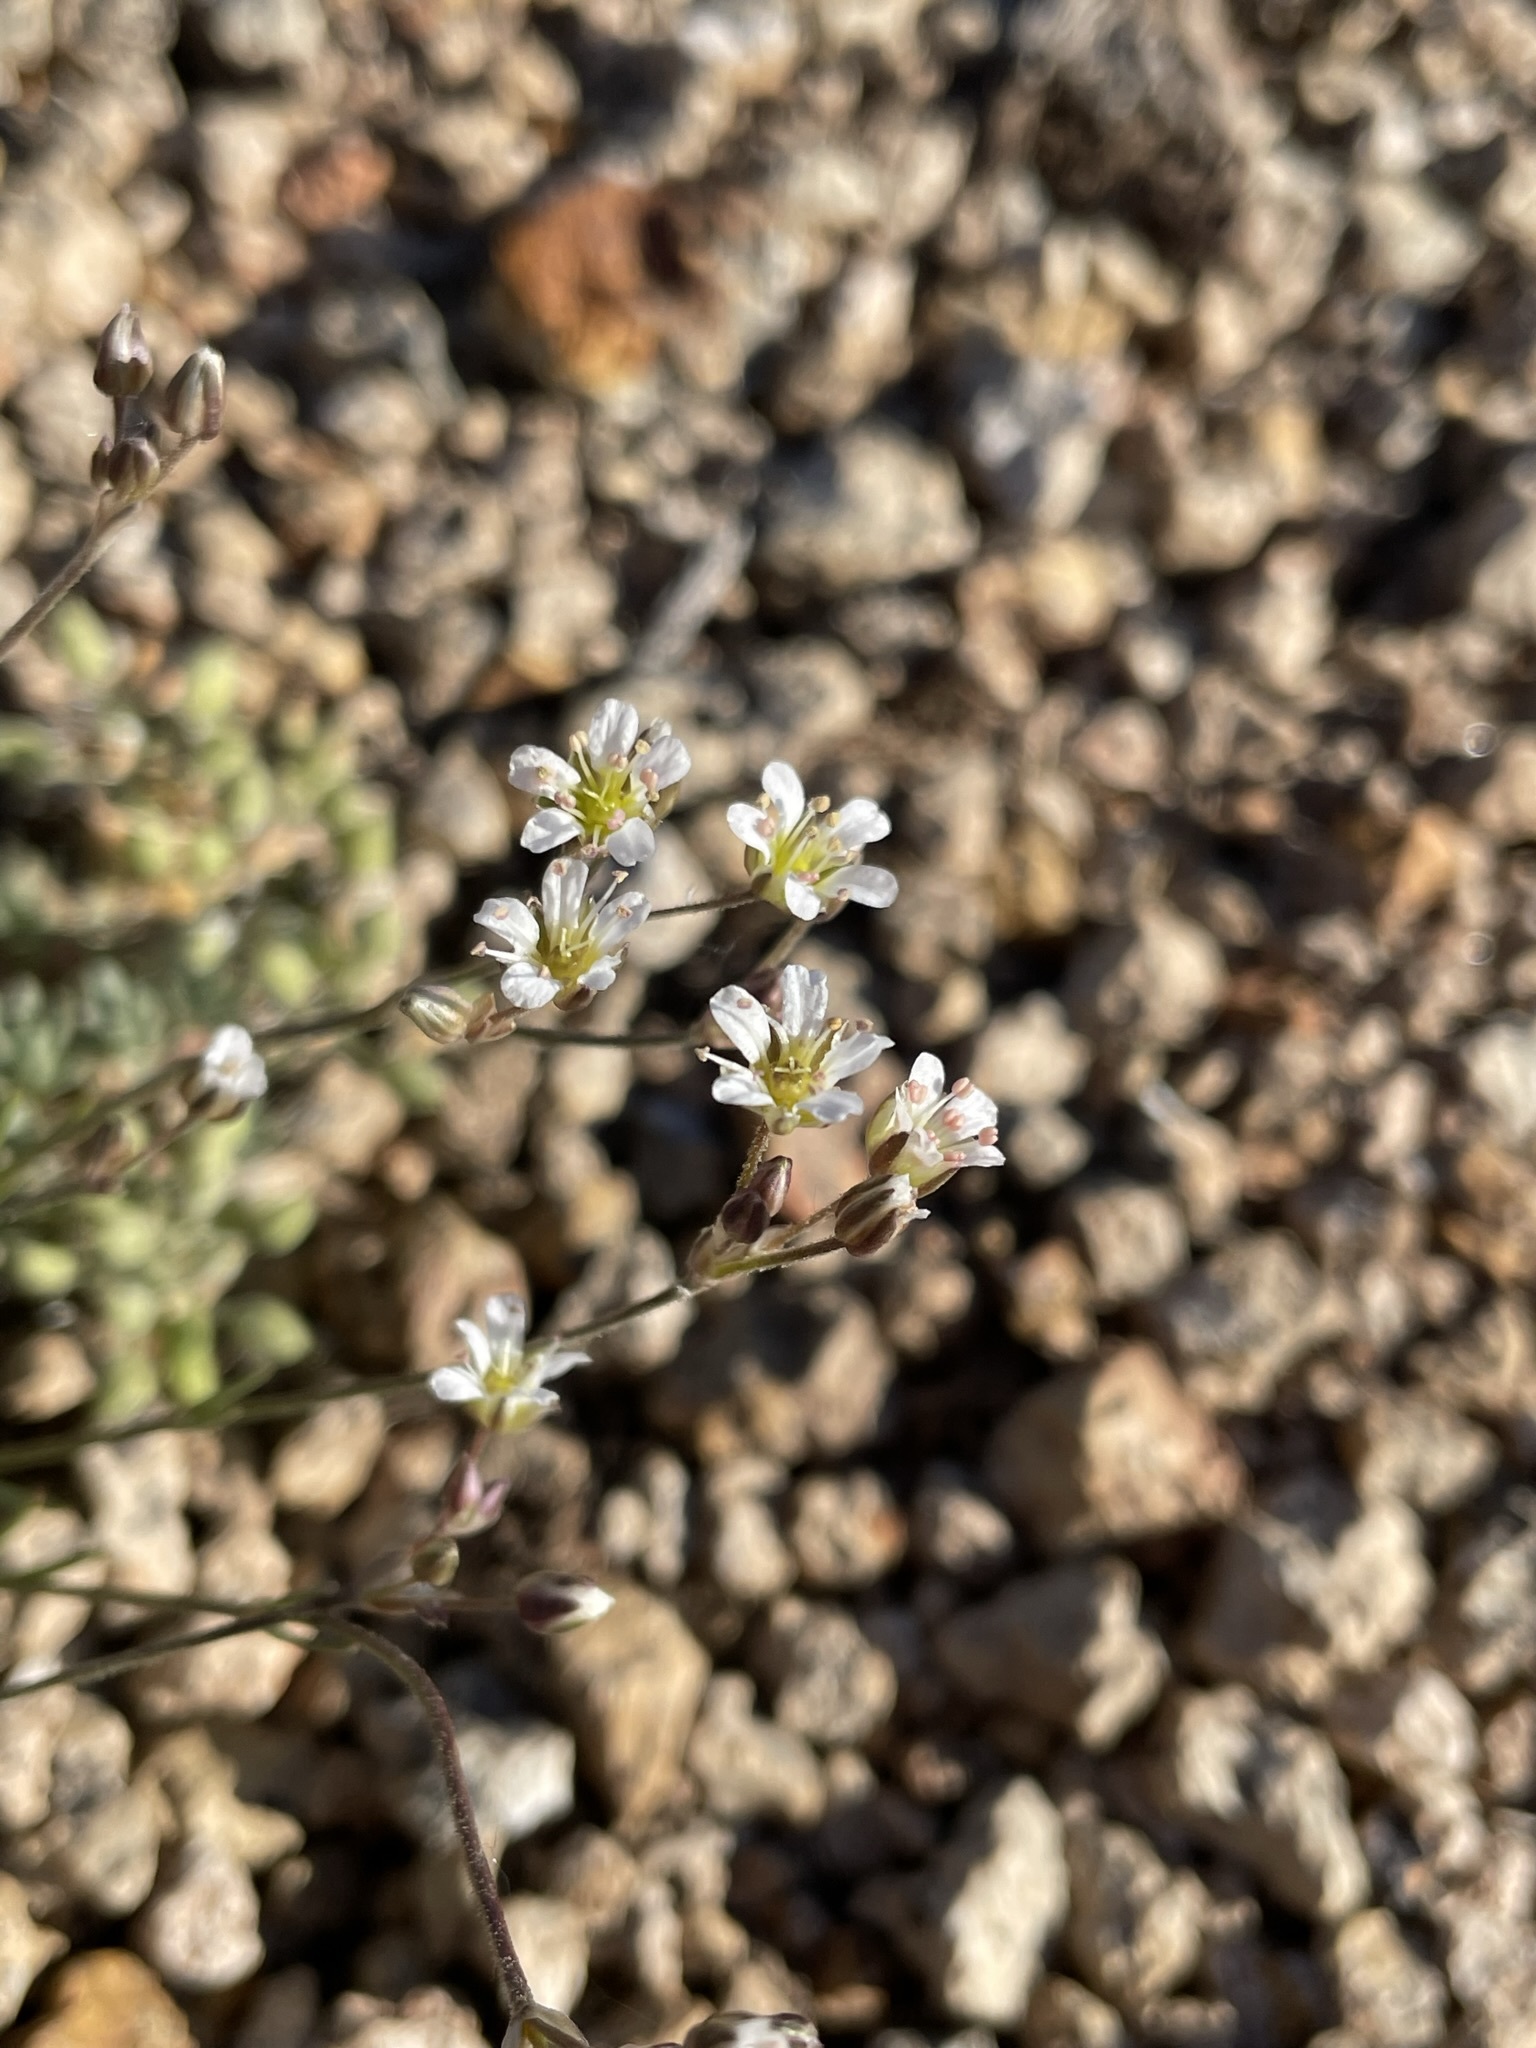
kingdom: Plantae
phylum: Tracheophyta
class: Magnoliopsida
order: Caryophyllales
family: Caryophyllaceae
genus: Eremogone
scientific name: Eremogone kingii
